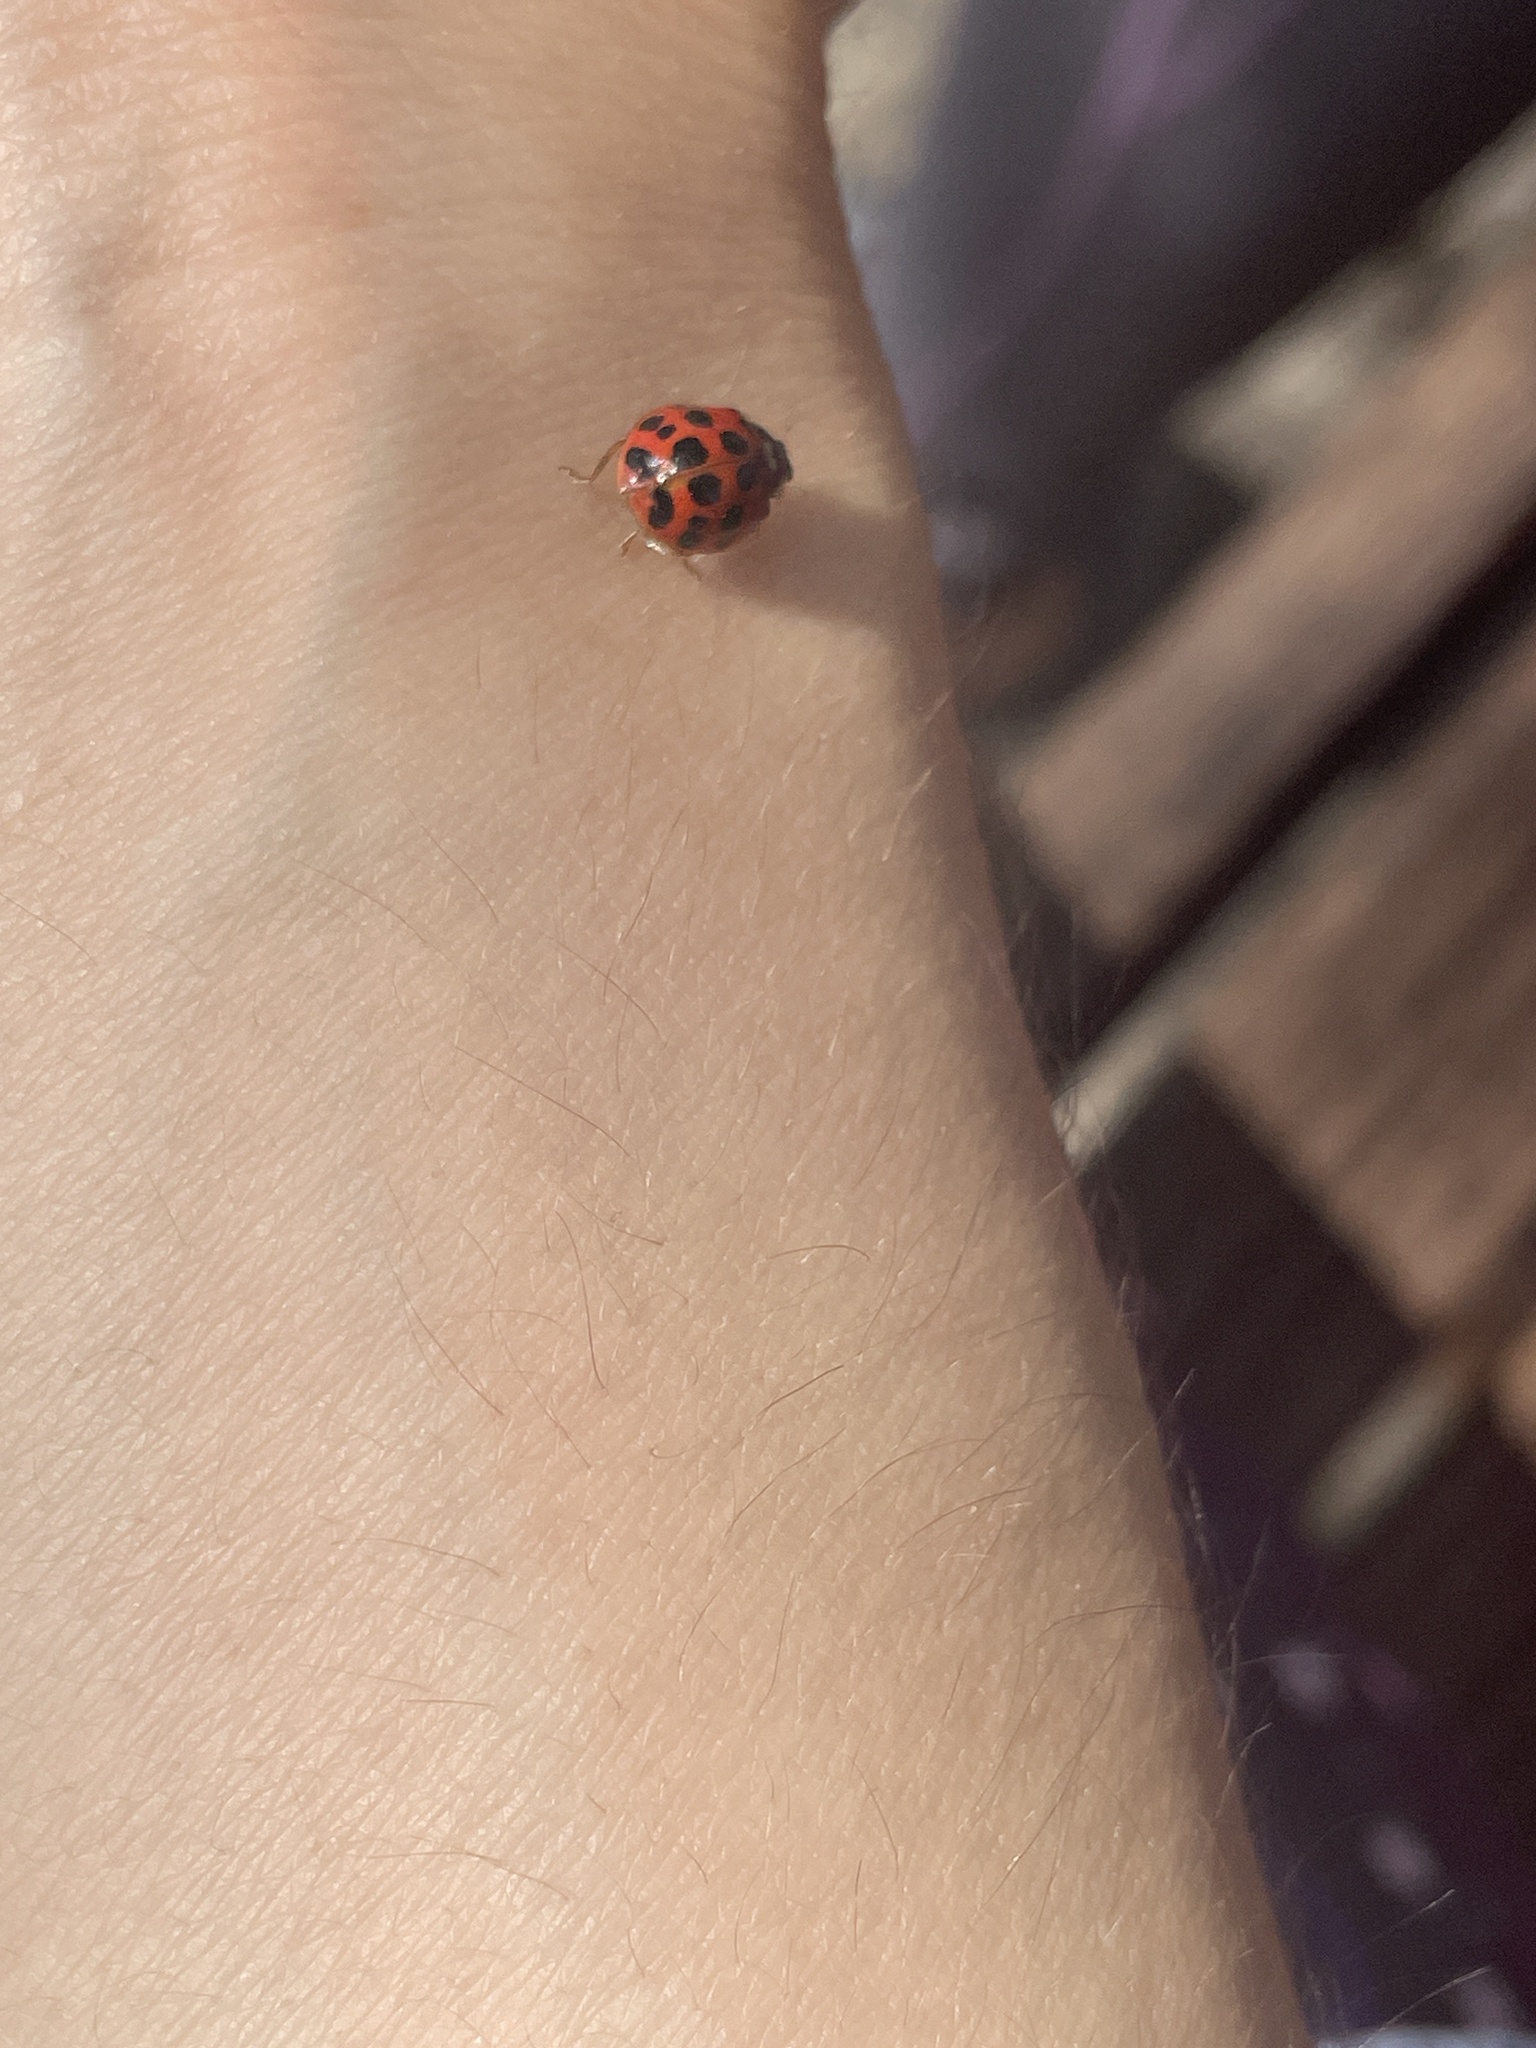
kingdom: Animalia
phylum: Arthropoda
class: Insecta
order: Coleoptera
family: Coccinellidae
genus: Harmonia
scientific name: Harmonia axyridis
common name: Harlequin ladybird
